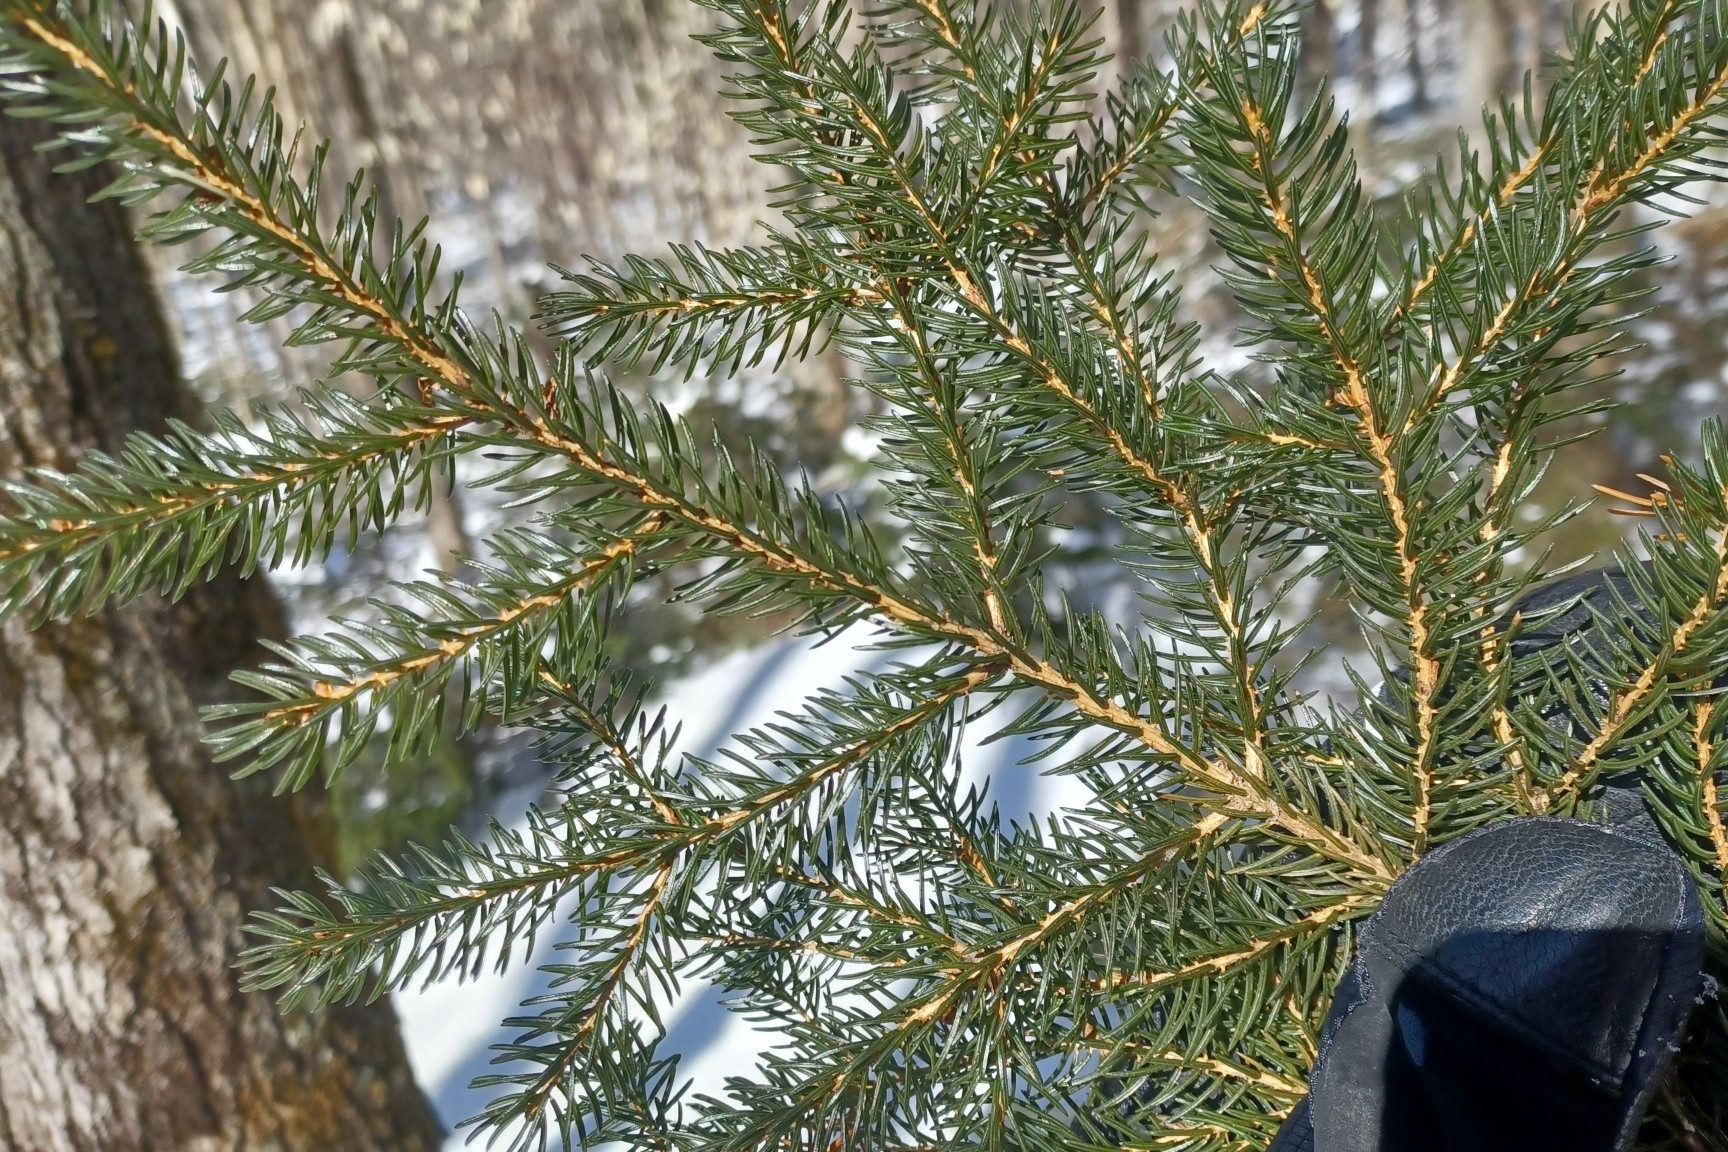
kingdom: Plantae
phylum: Tracheophyta
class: Pinopsida
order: Pinales
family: Pinaceae
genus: Picea
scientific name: Picea rubens
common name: Red spruce
